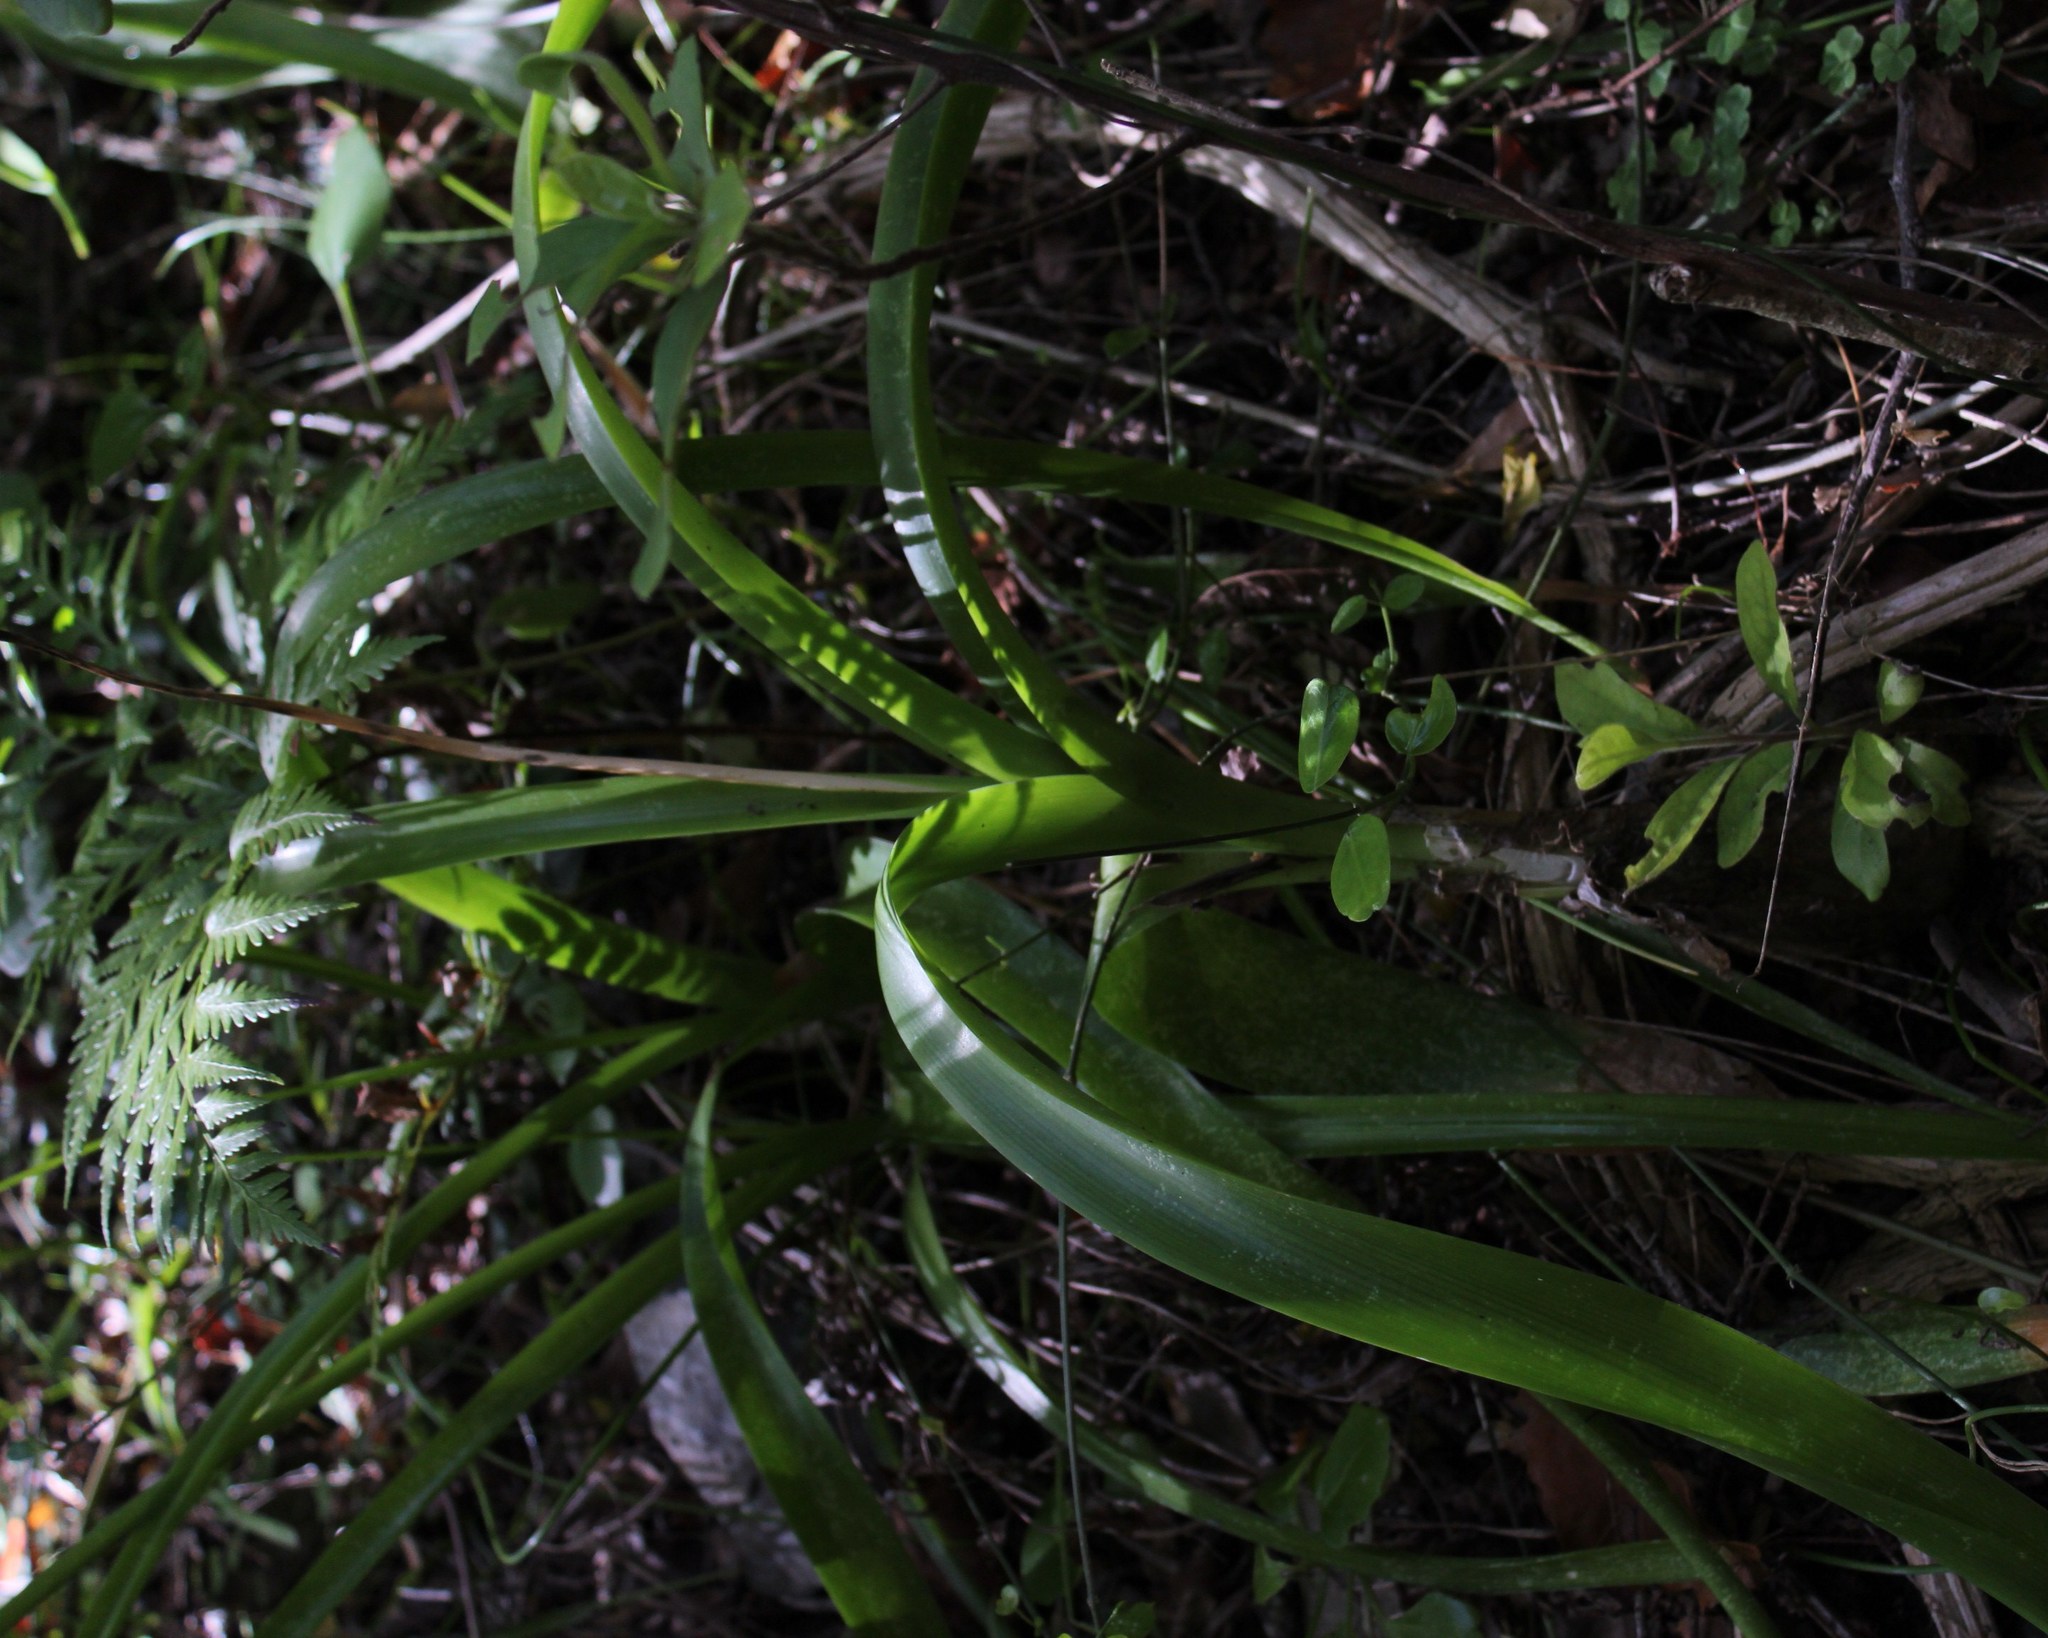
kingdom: Plantae
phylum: Tracheophyta
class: Liliopsida
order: Asparagales
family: Asparagaceae
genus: Albuca
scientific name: Albuca bracteata
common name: Sea-onion
